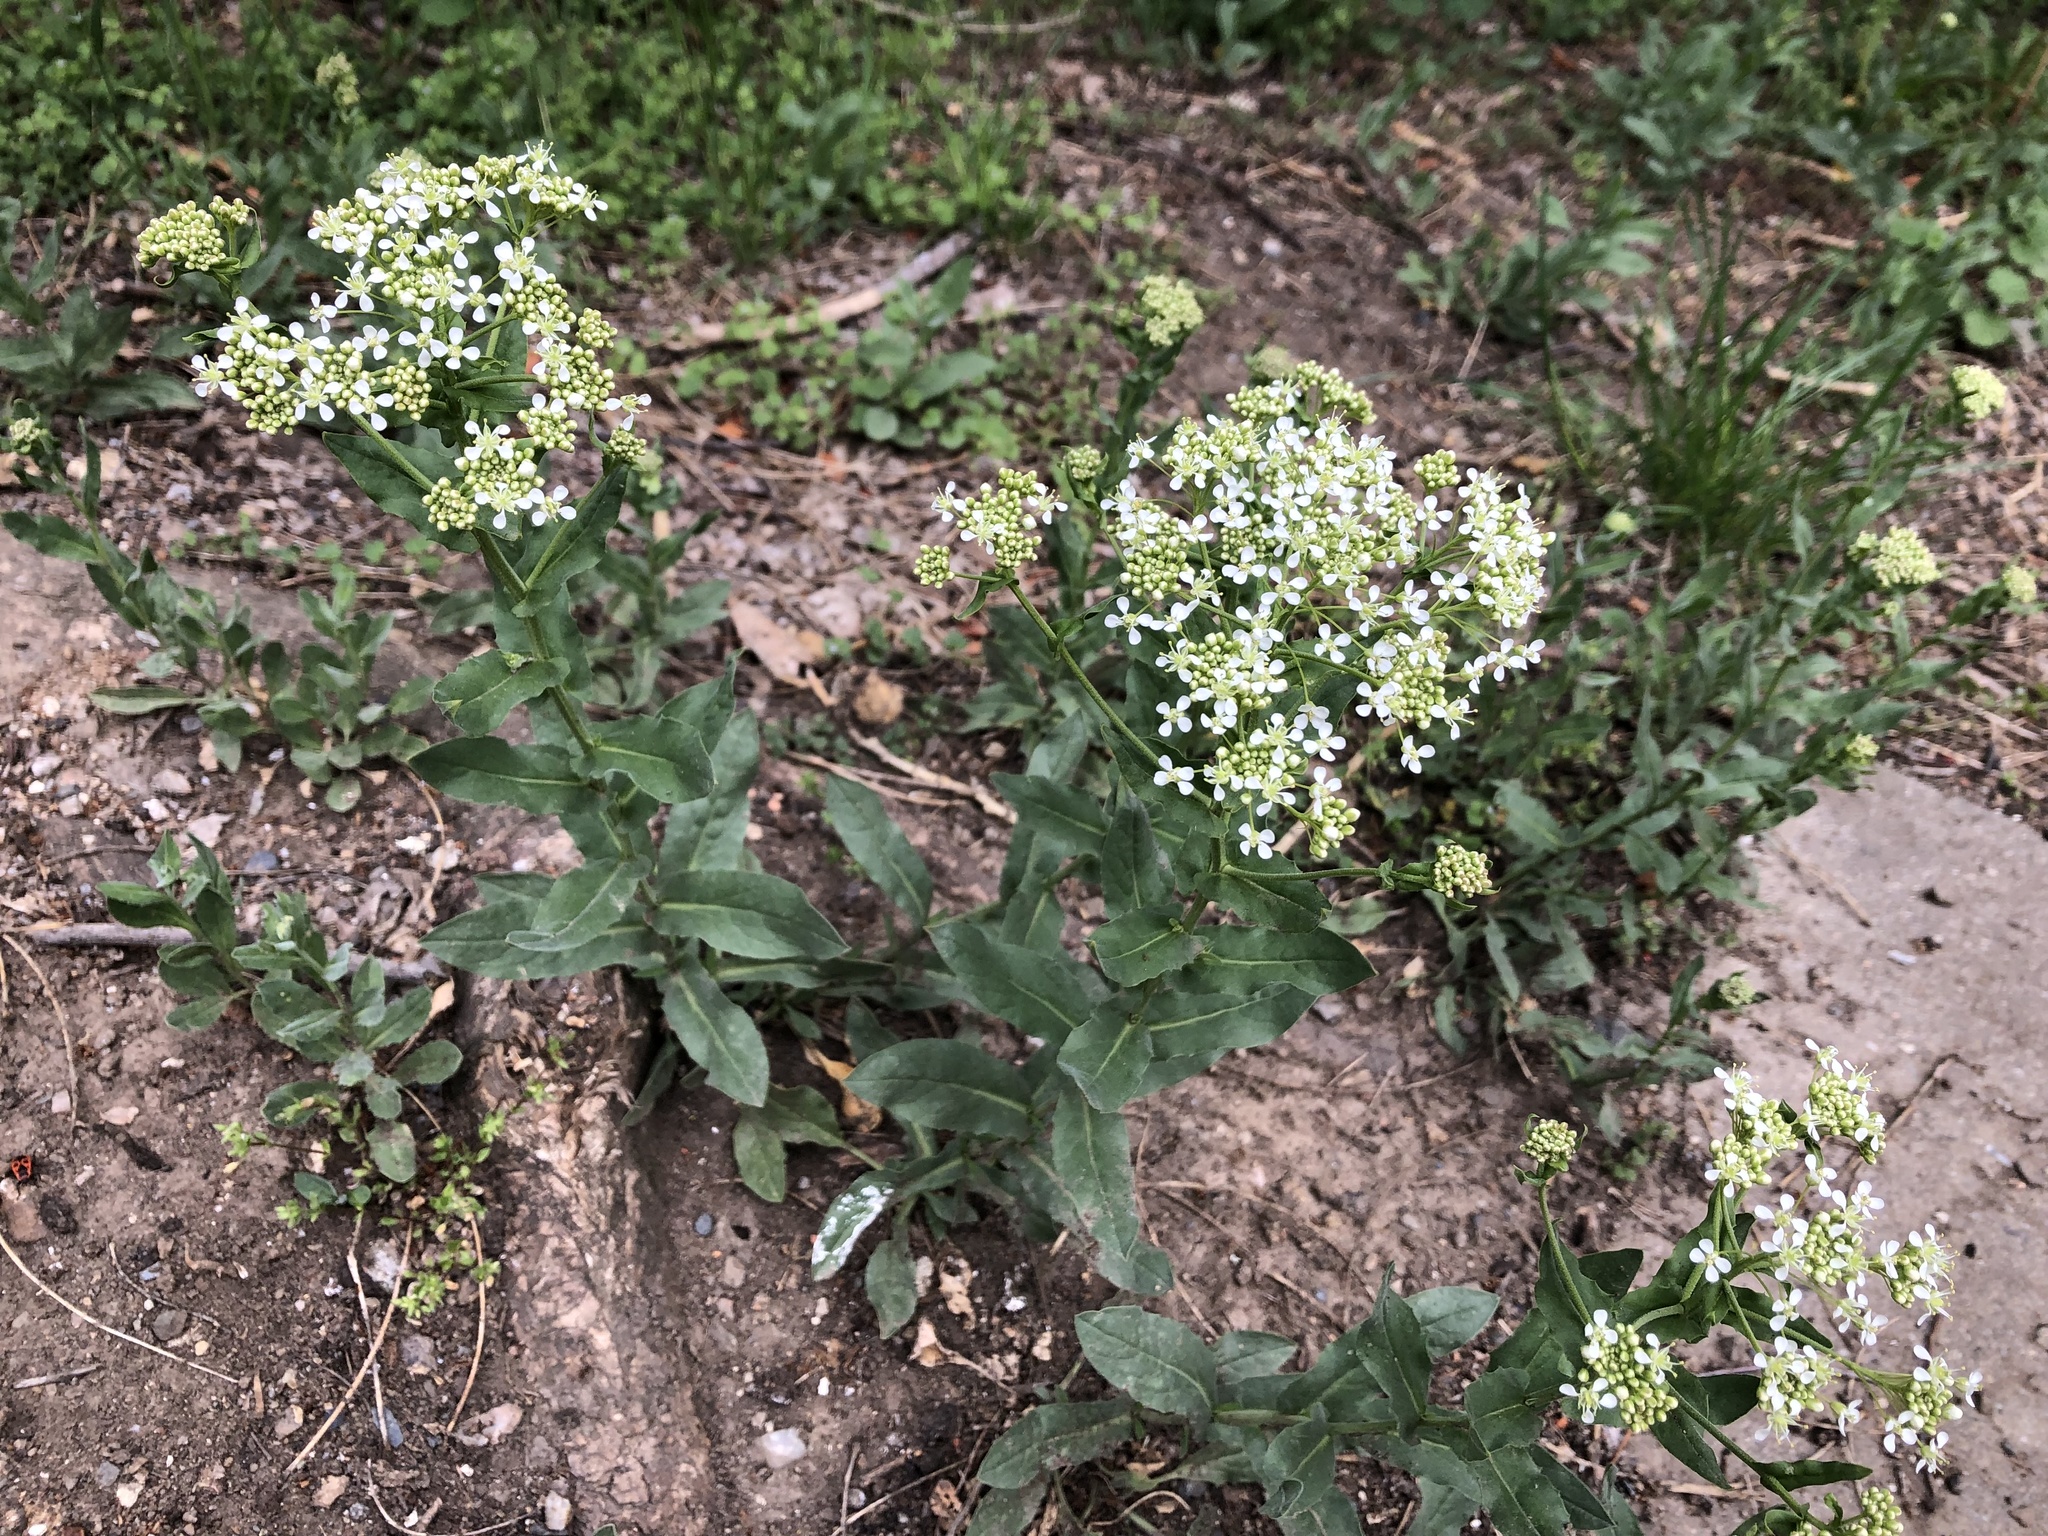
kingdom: Plantae
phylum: Tracheophyta
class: Magnoliopsida
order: Brassicales
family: Brassicaceae
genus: Lepidium
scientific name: Lepidium draba
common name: Hoary cress
